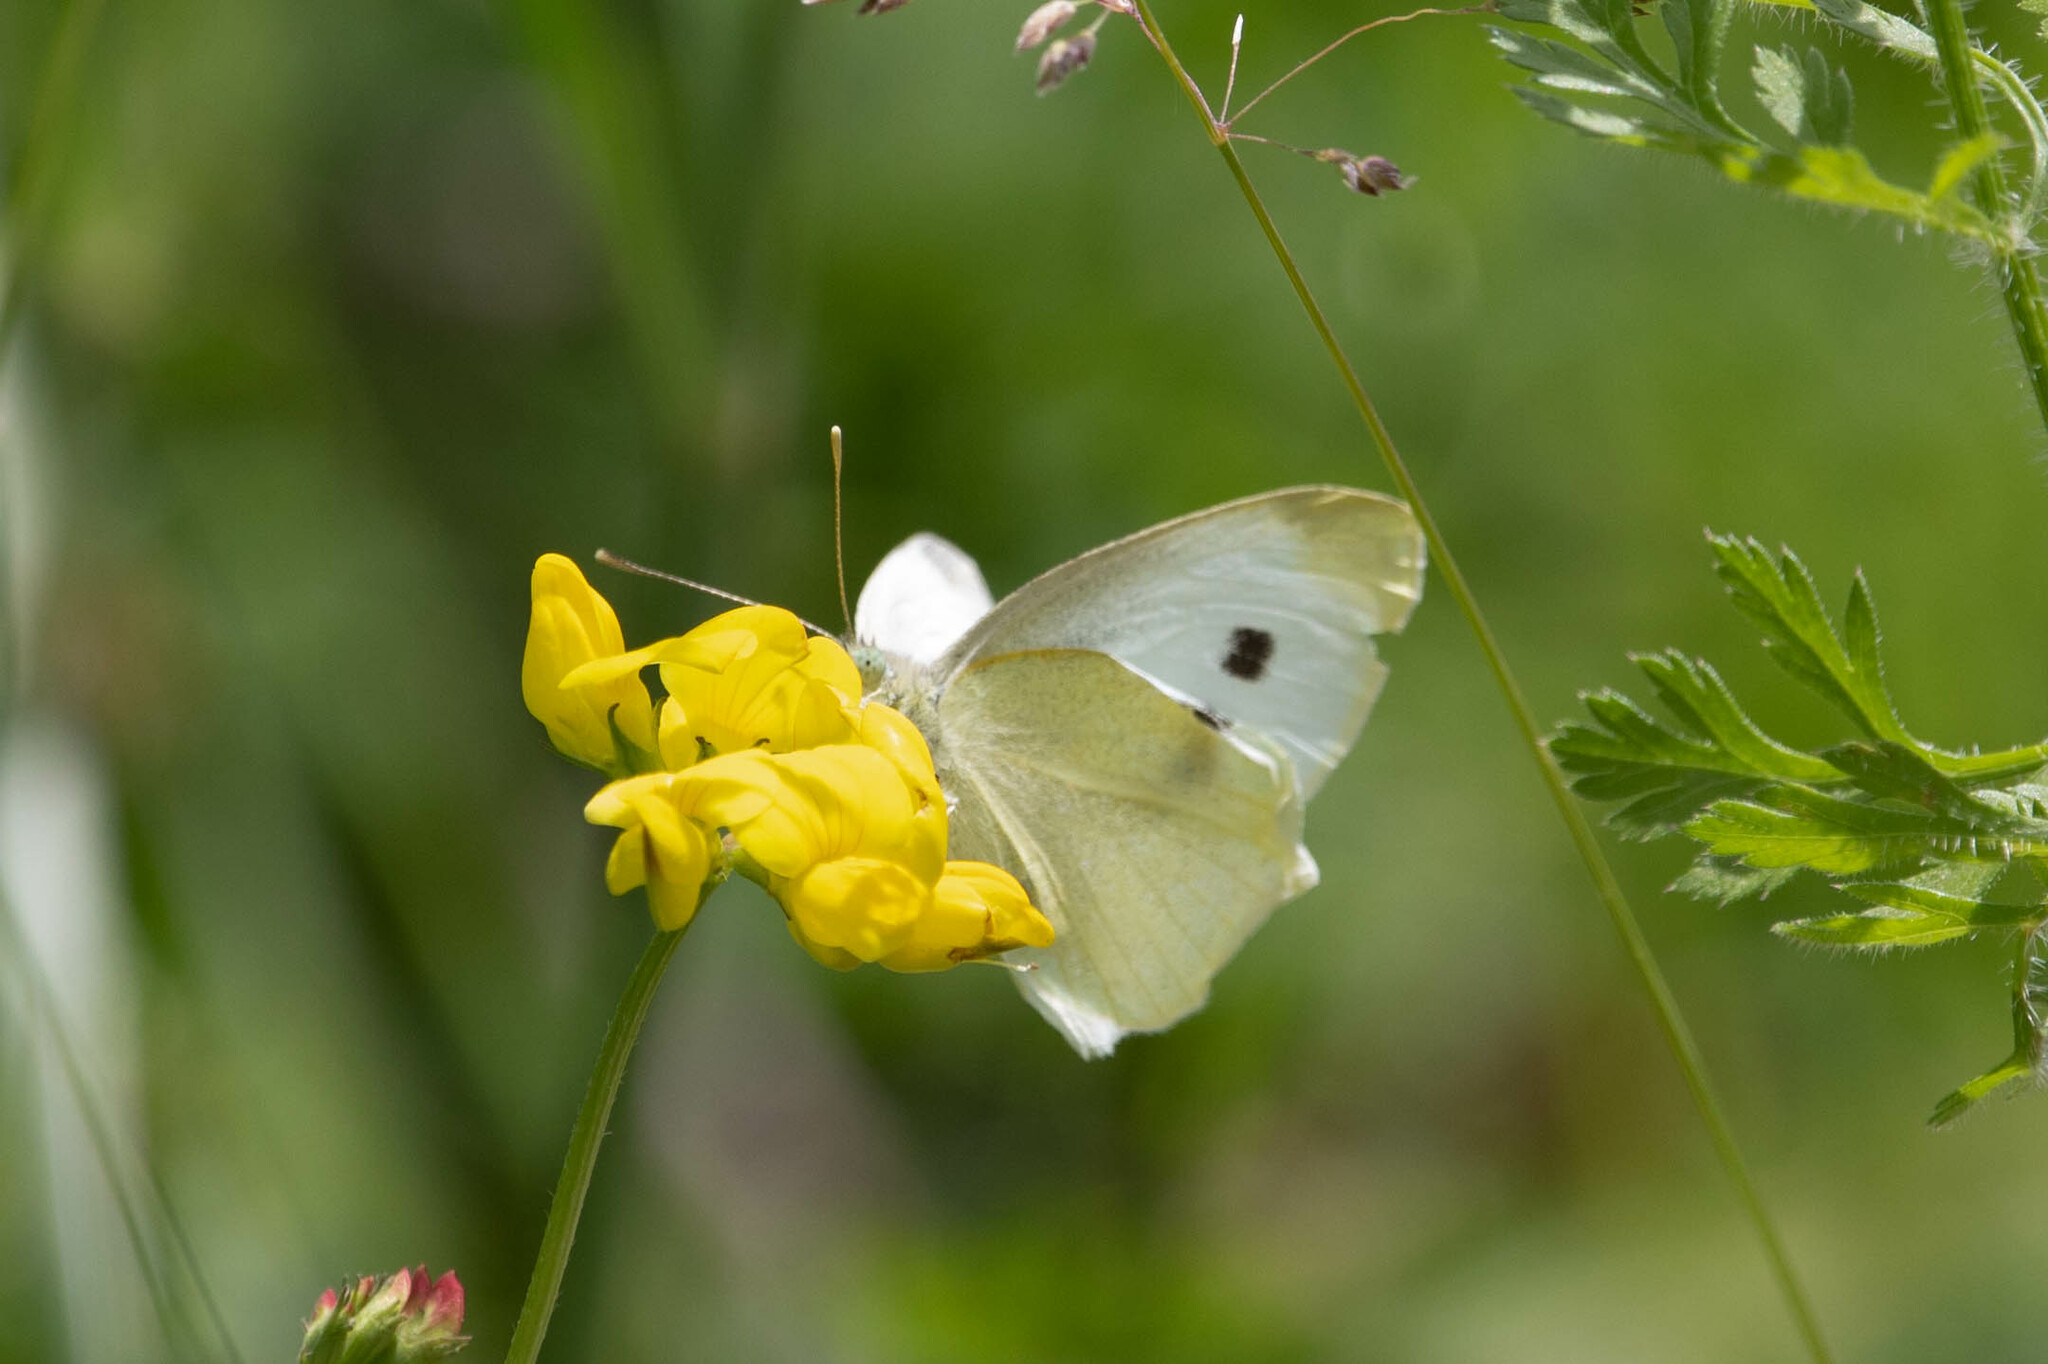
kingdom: Animalia
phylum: Arthropoda
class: Insecta
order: Lepidoptera
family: Pieridae
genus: Pieris
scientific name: Pieris rapae
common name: Small white
